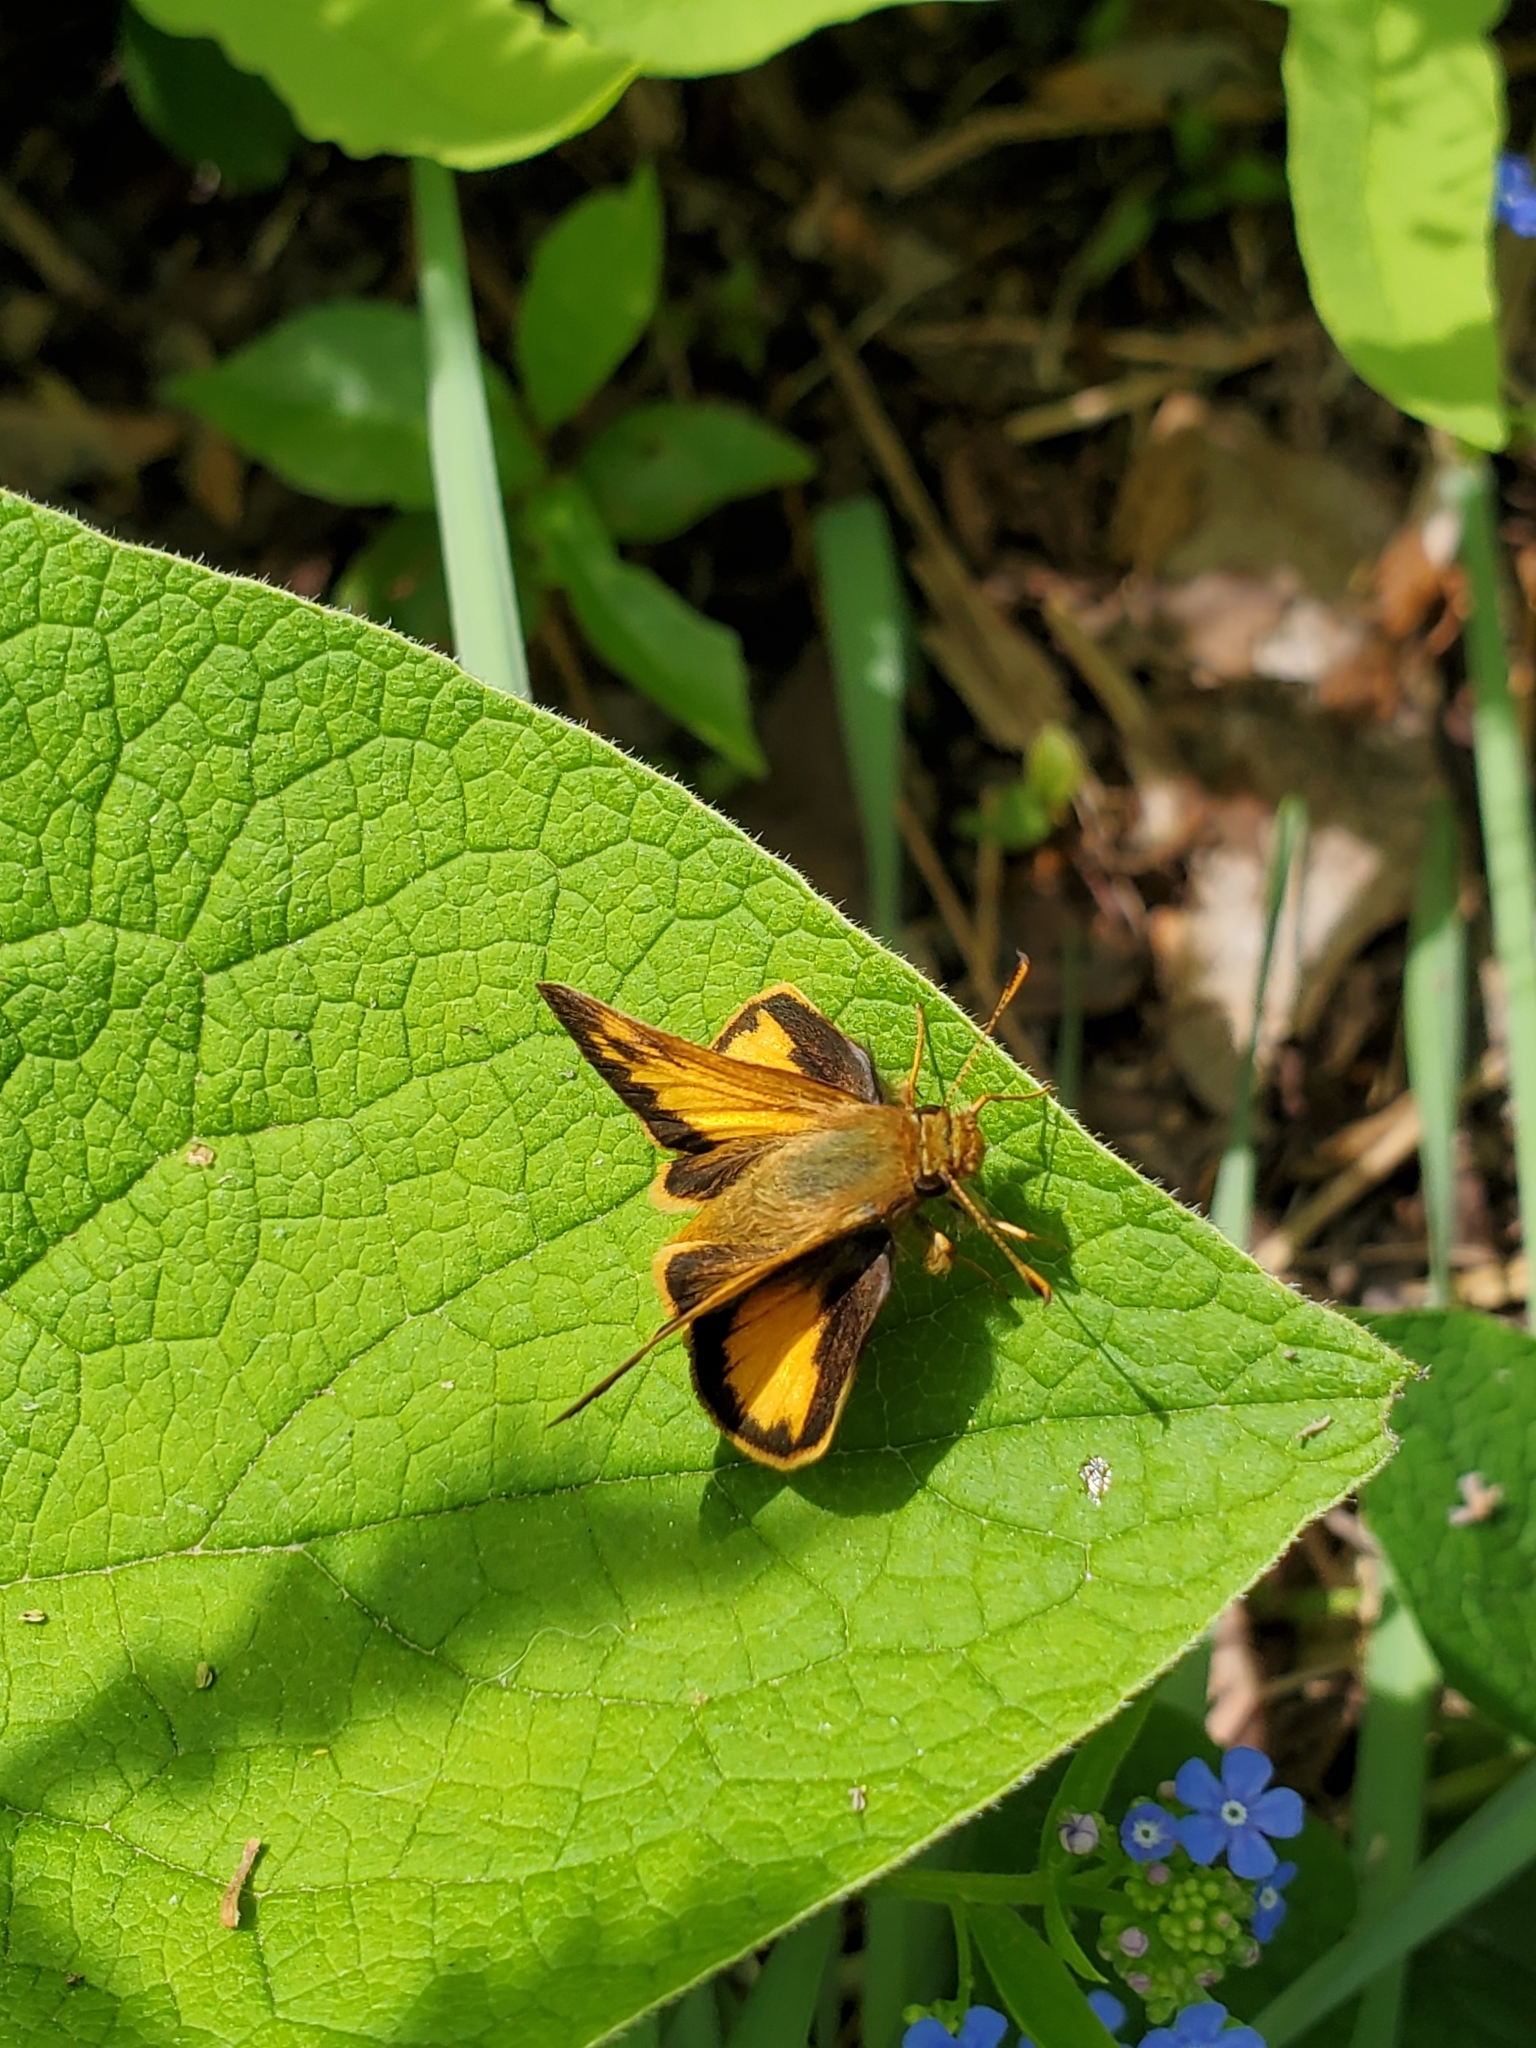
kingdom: Animalia
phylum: Arthropoda
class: Insecta
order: Lepidoptera
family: Hesperiidae
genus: Lon
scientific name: Lon zabulon
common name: Zabulon skipper
